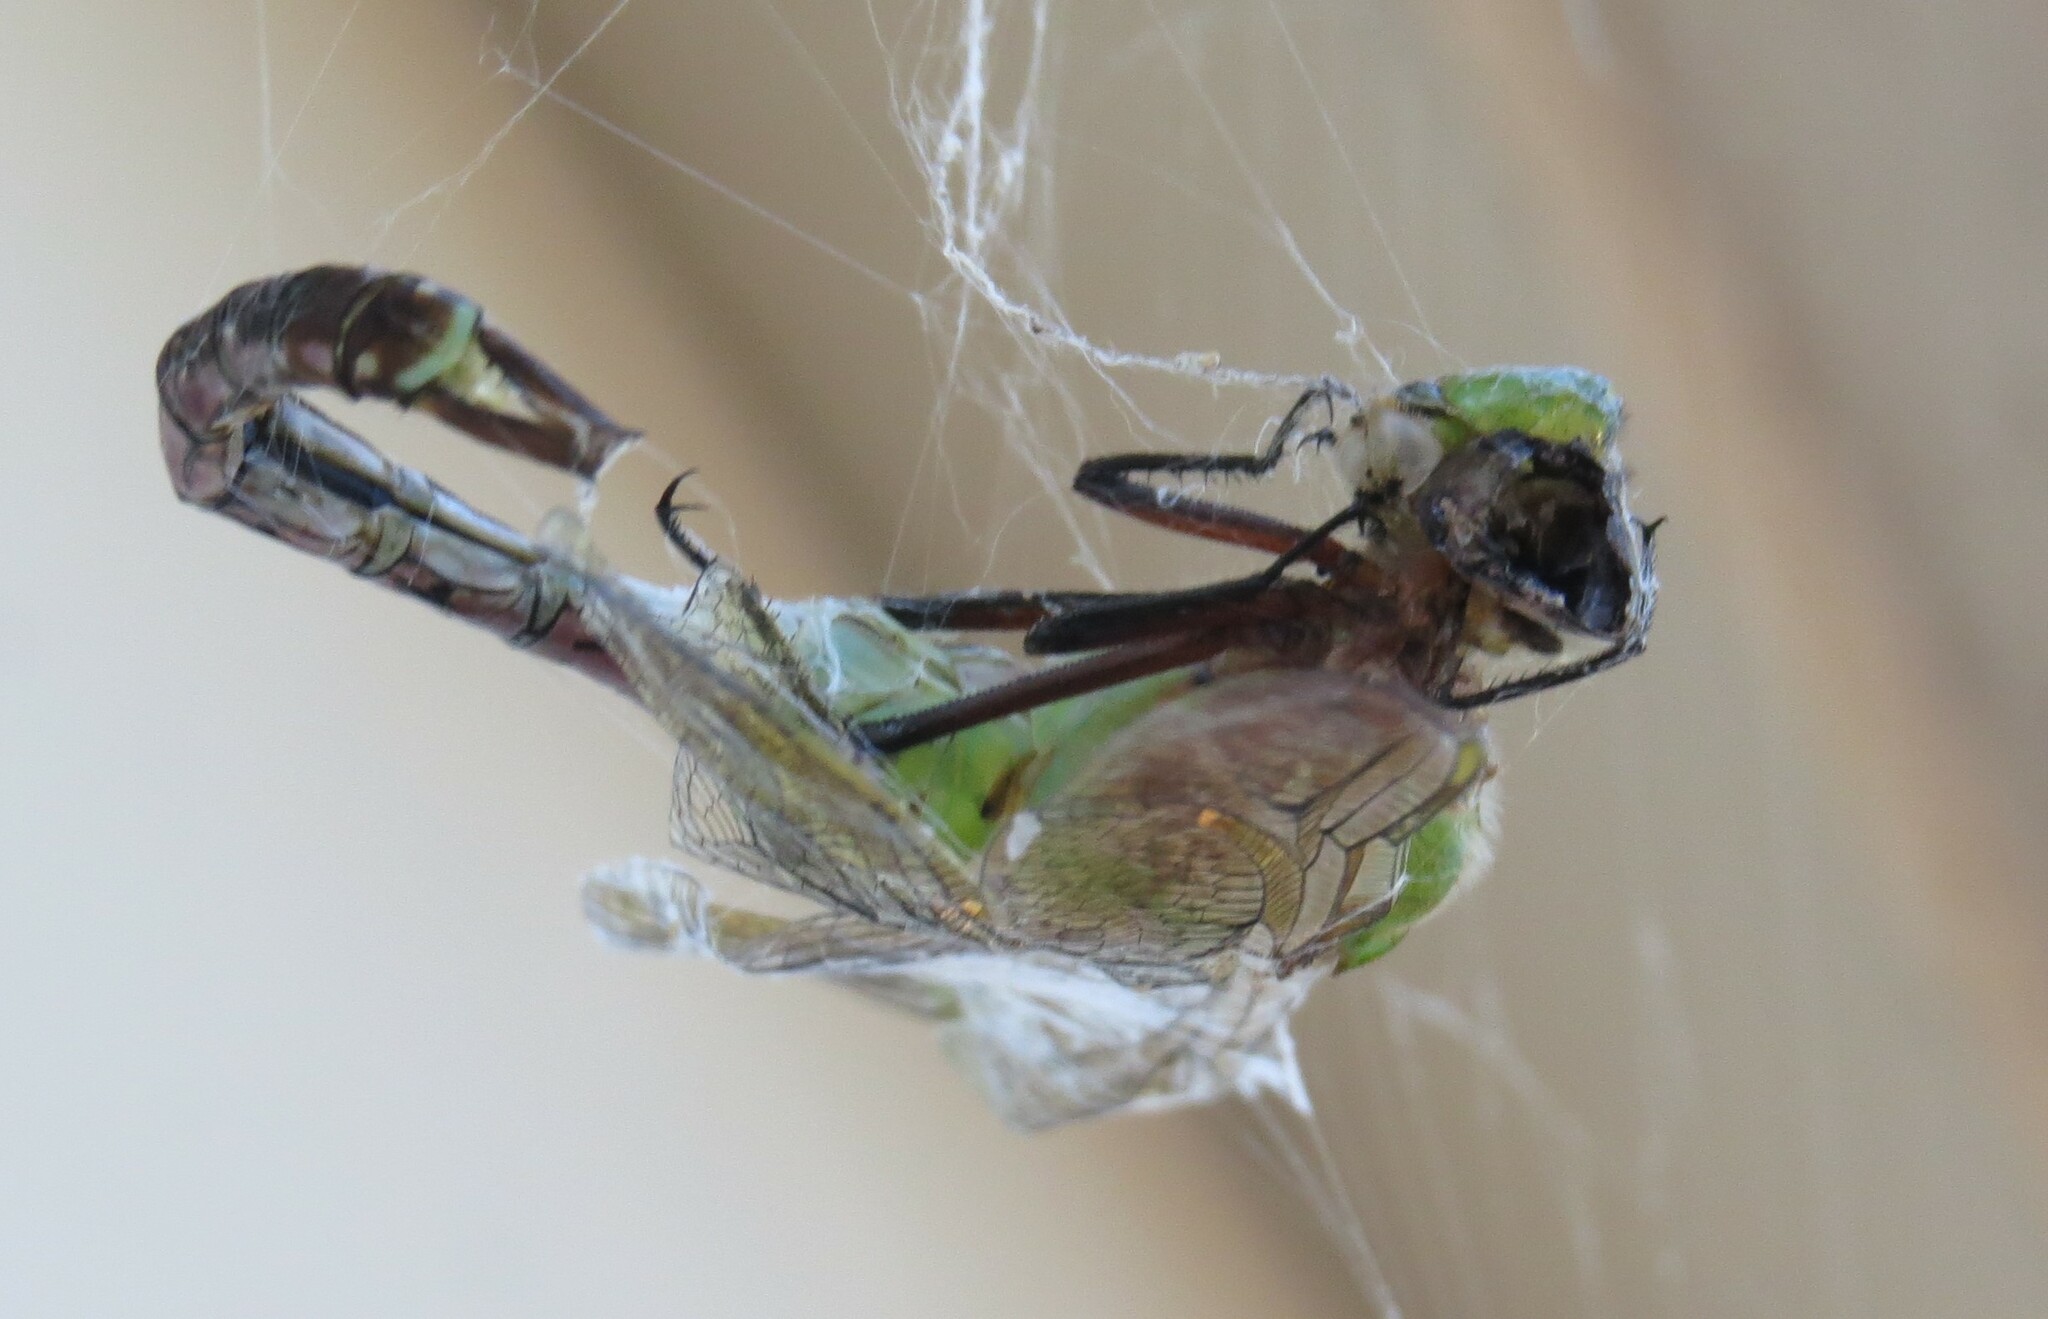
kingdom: Animalia
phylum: Arthropoda
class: Insecta
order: Odonata
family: Aeshnidae
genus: Anax
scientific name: Anax junius
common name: Common green darner
